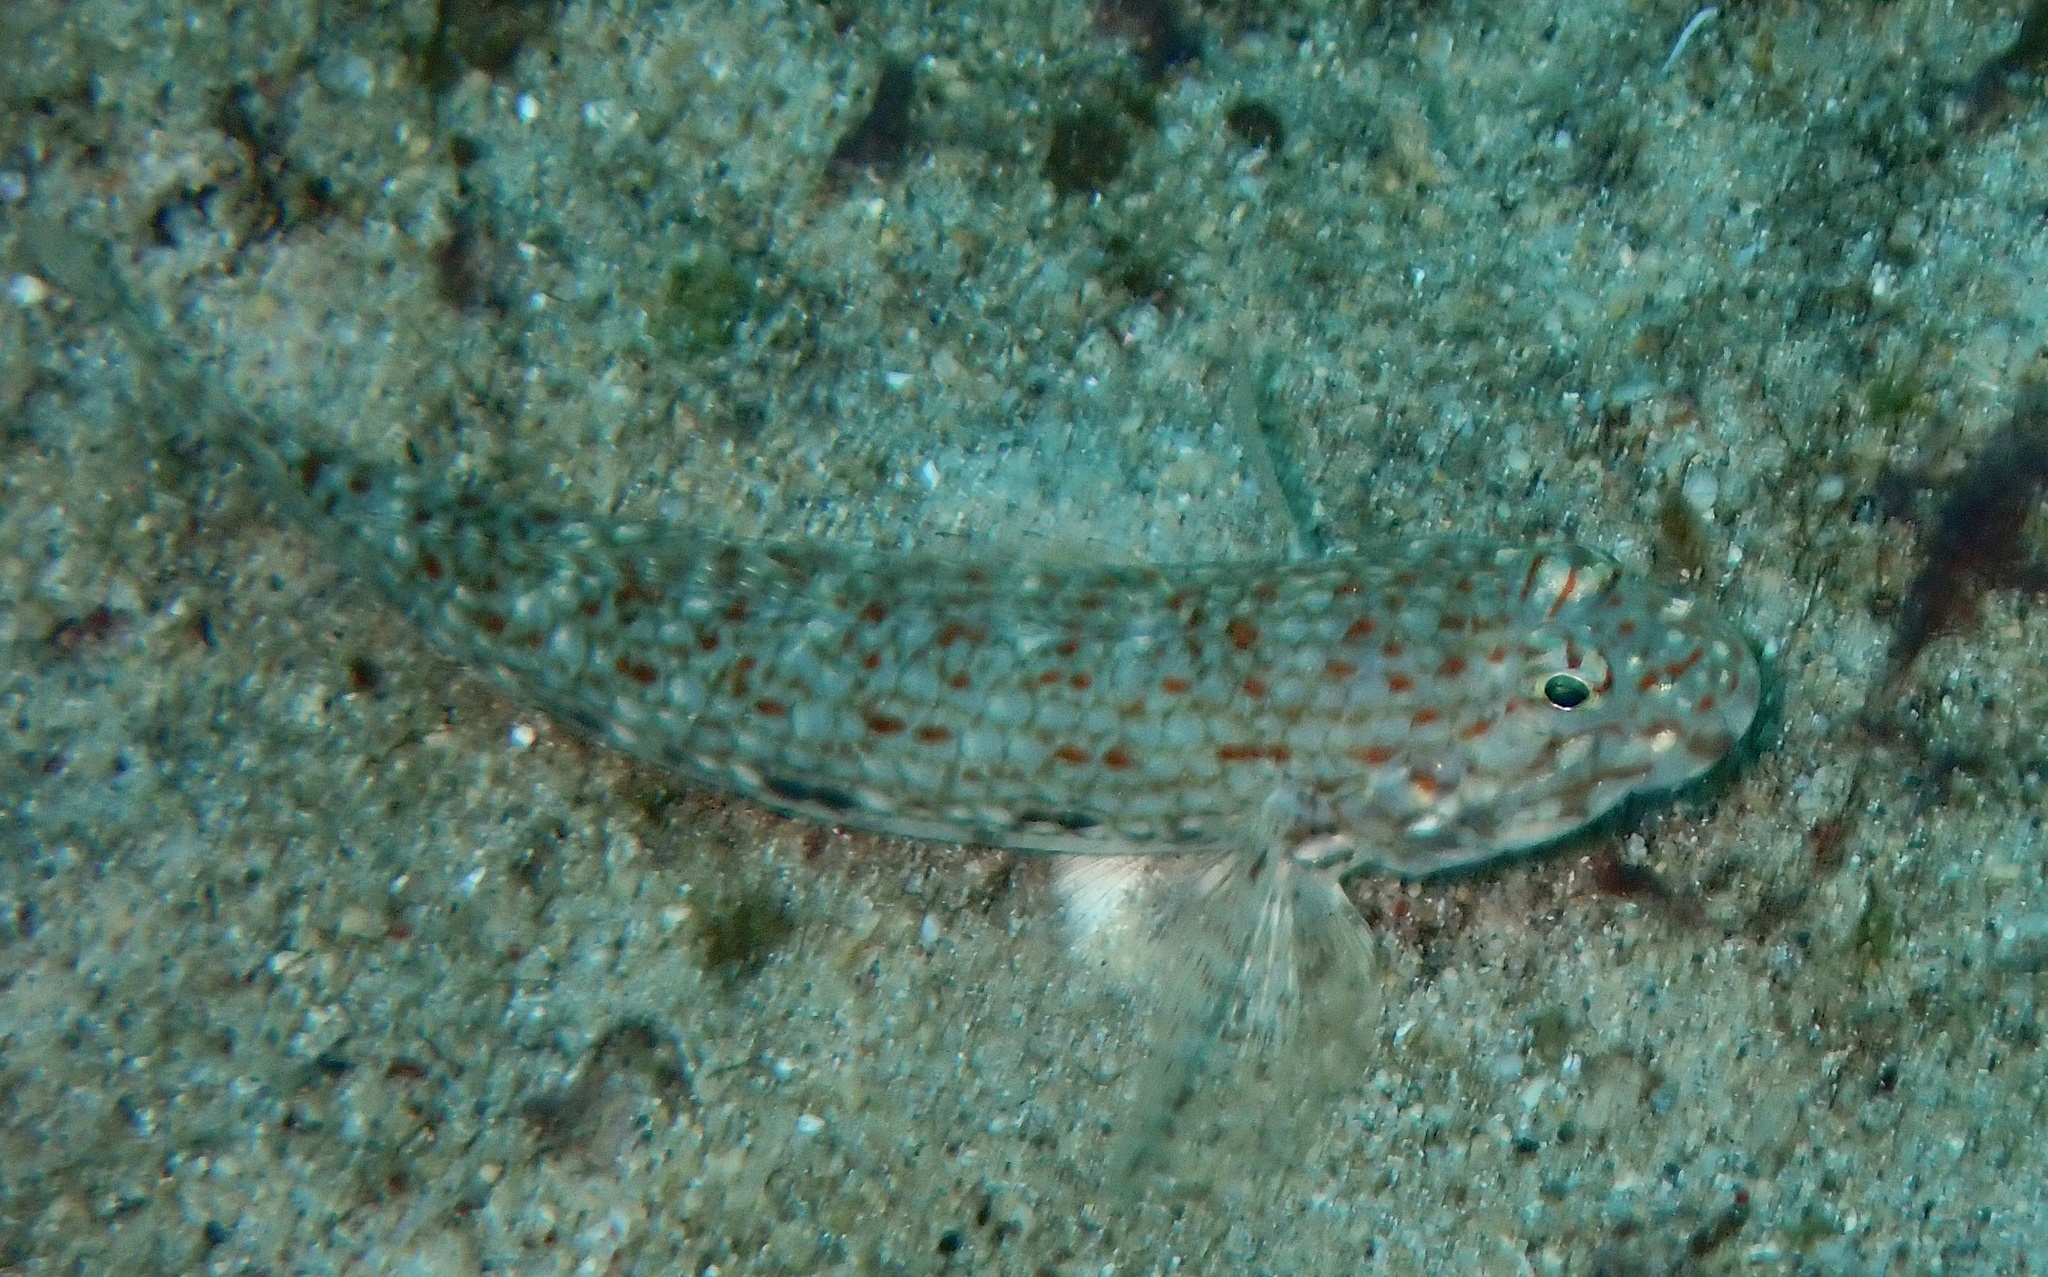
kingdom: Animalia
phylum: Chordata
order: Perciformes
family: Gobiidae
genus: Istigobius
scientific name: Istigobius decoratus
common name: Decorated goby
